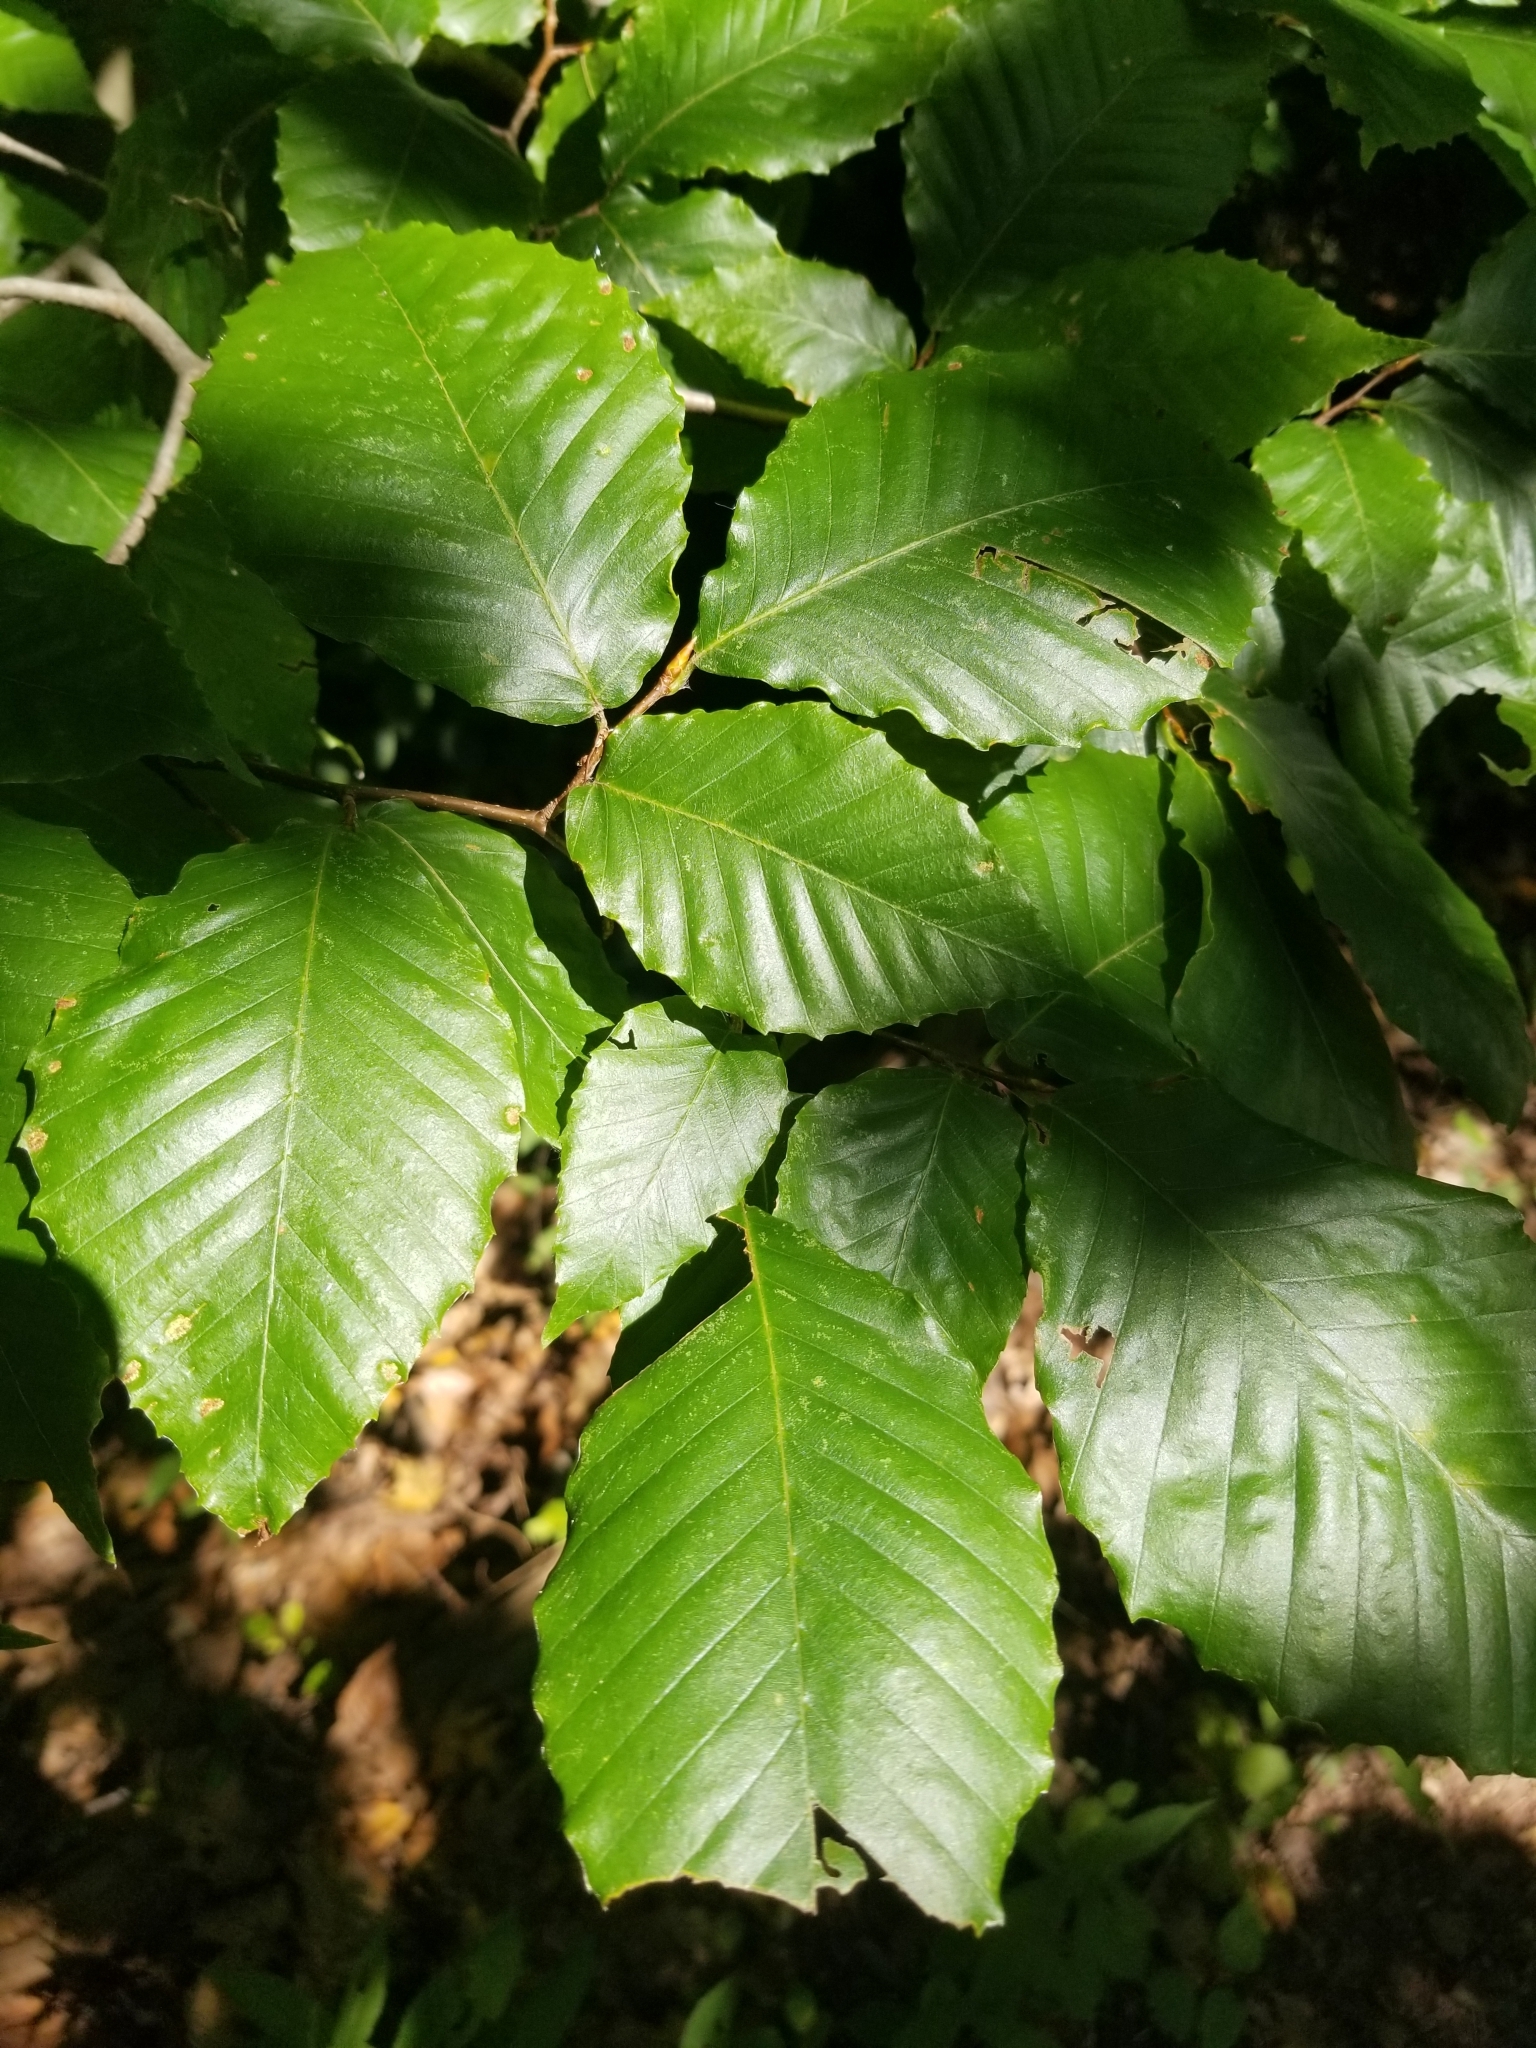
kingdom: Plantae
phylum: Tracheophyta
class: Magnoliopsida
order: Fagales
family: Fagaceae
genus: Fagus
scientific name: Fagus grandifolia
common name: American beech
